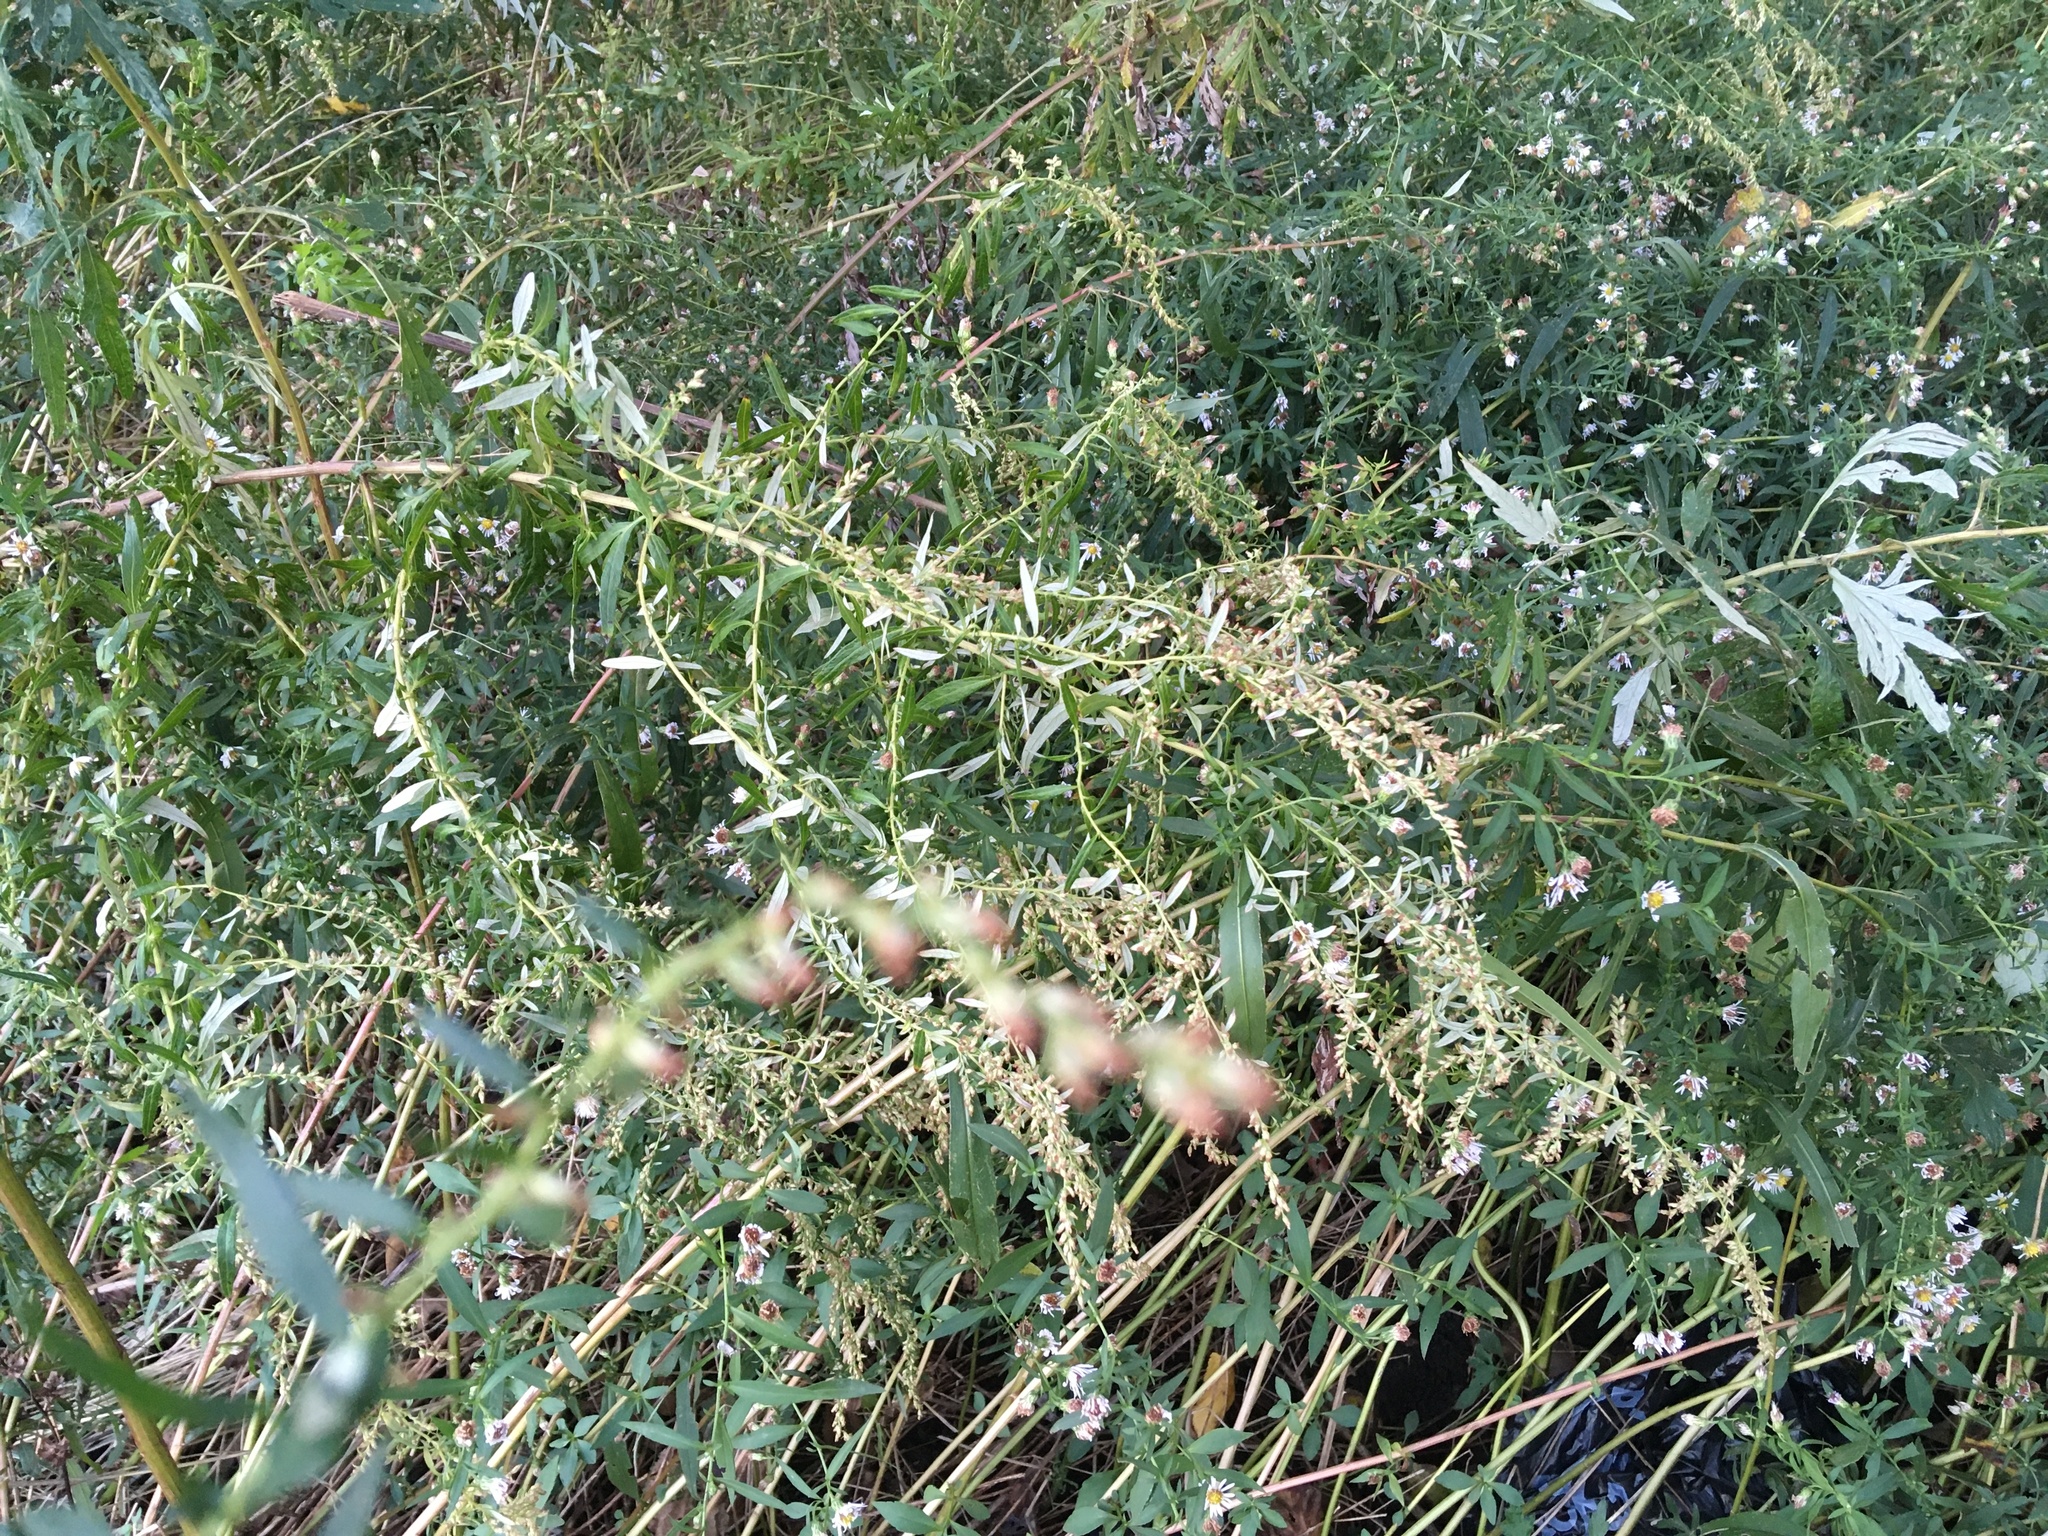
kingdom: Plantae
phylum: Tracheophyta
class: Magnoliopsida
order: Asterales
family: Asteraceae
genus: Artemisia
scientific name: Artemisia vulgaris
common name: Mugwort
